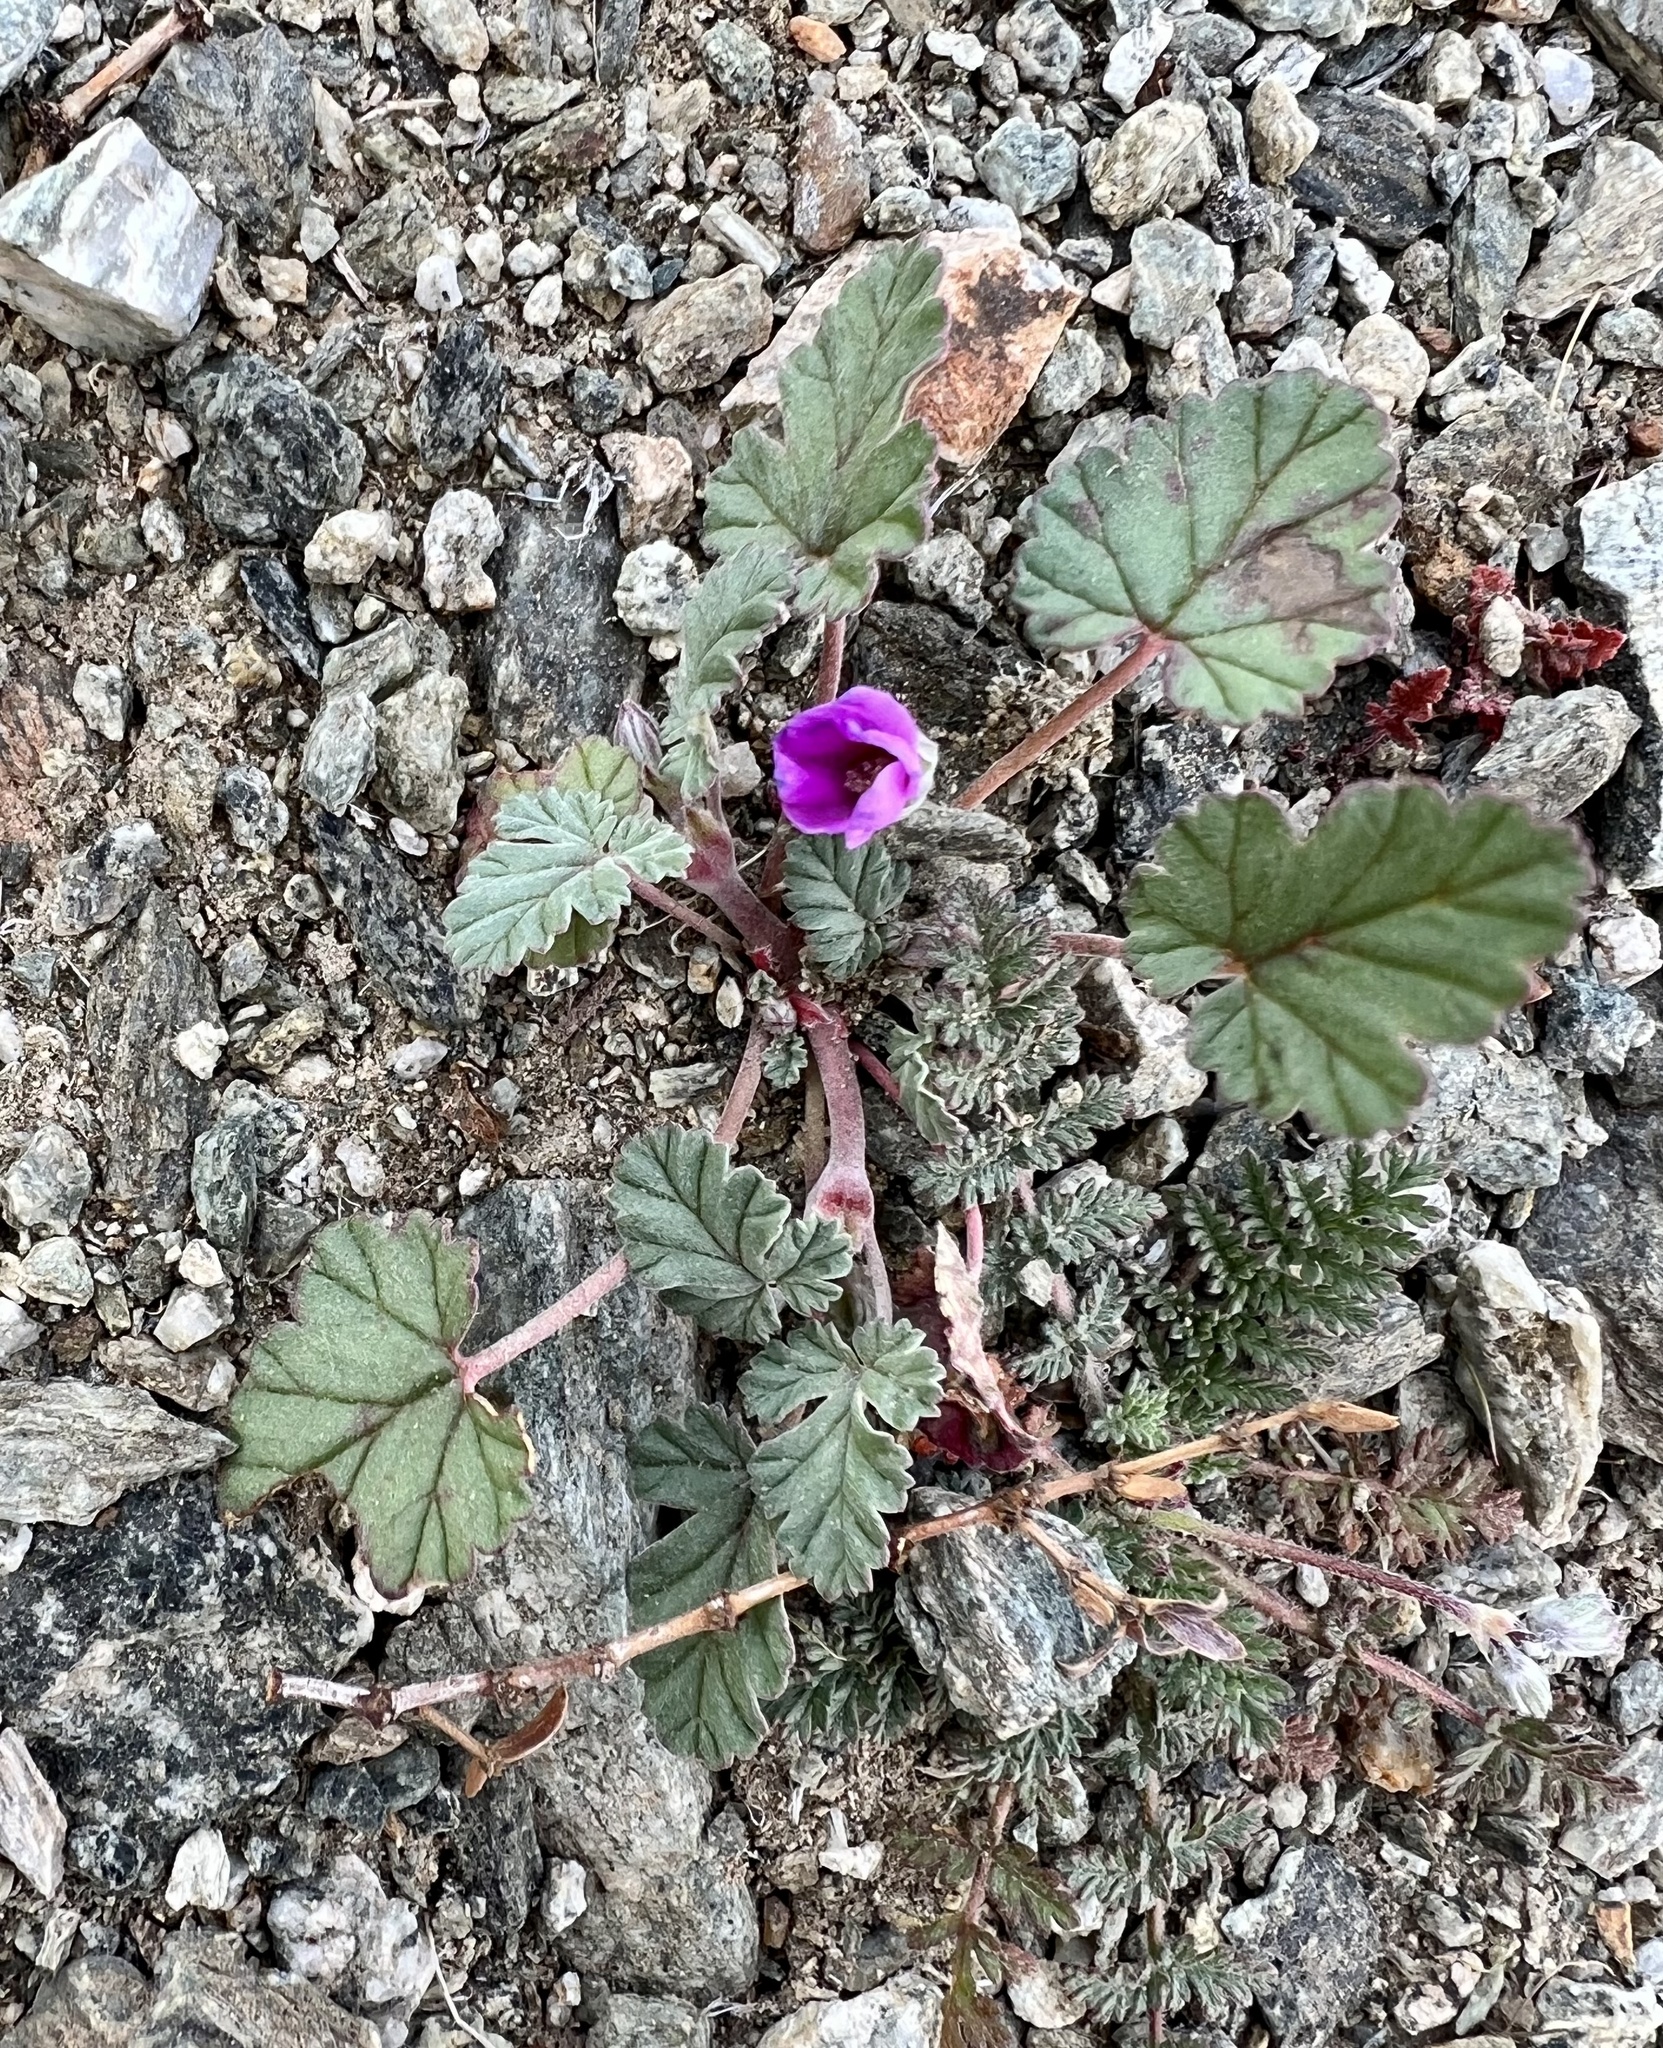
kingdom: Plantae
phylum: Tracheophyta
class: Magnoliopsida
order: Geraniales
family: Geraniaceae
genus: Erodium
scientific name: Erodium texanum
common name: Texas stork's-bill
